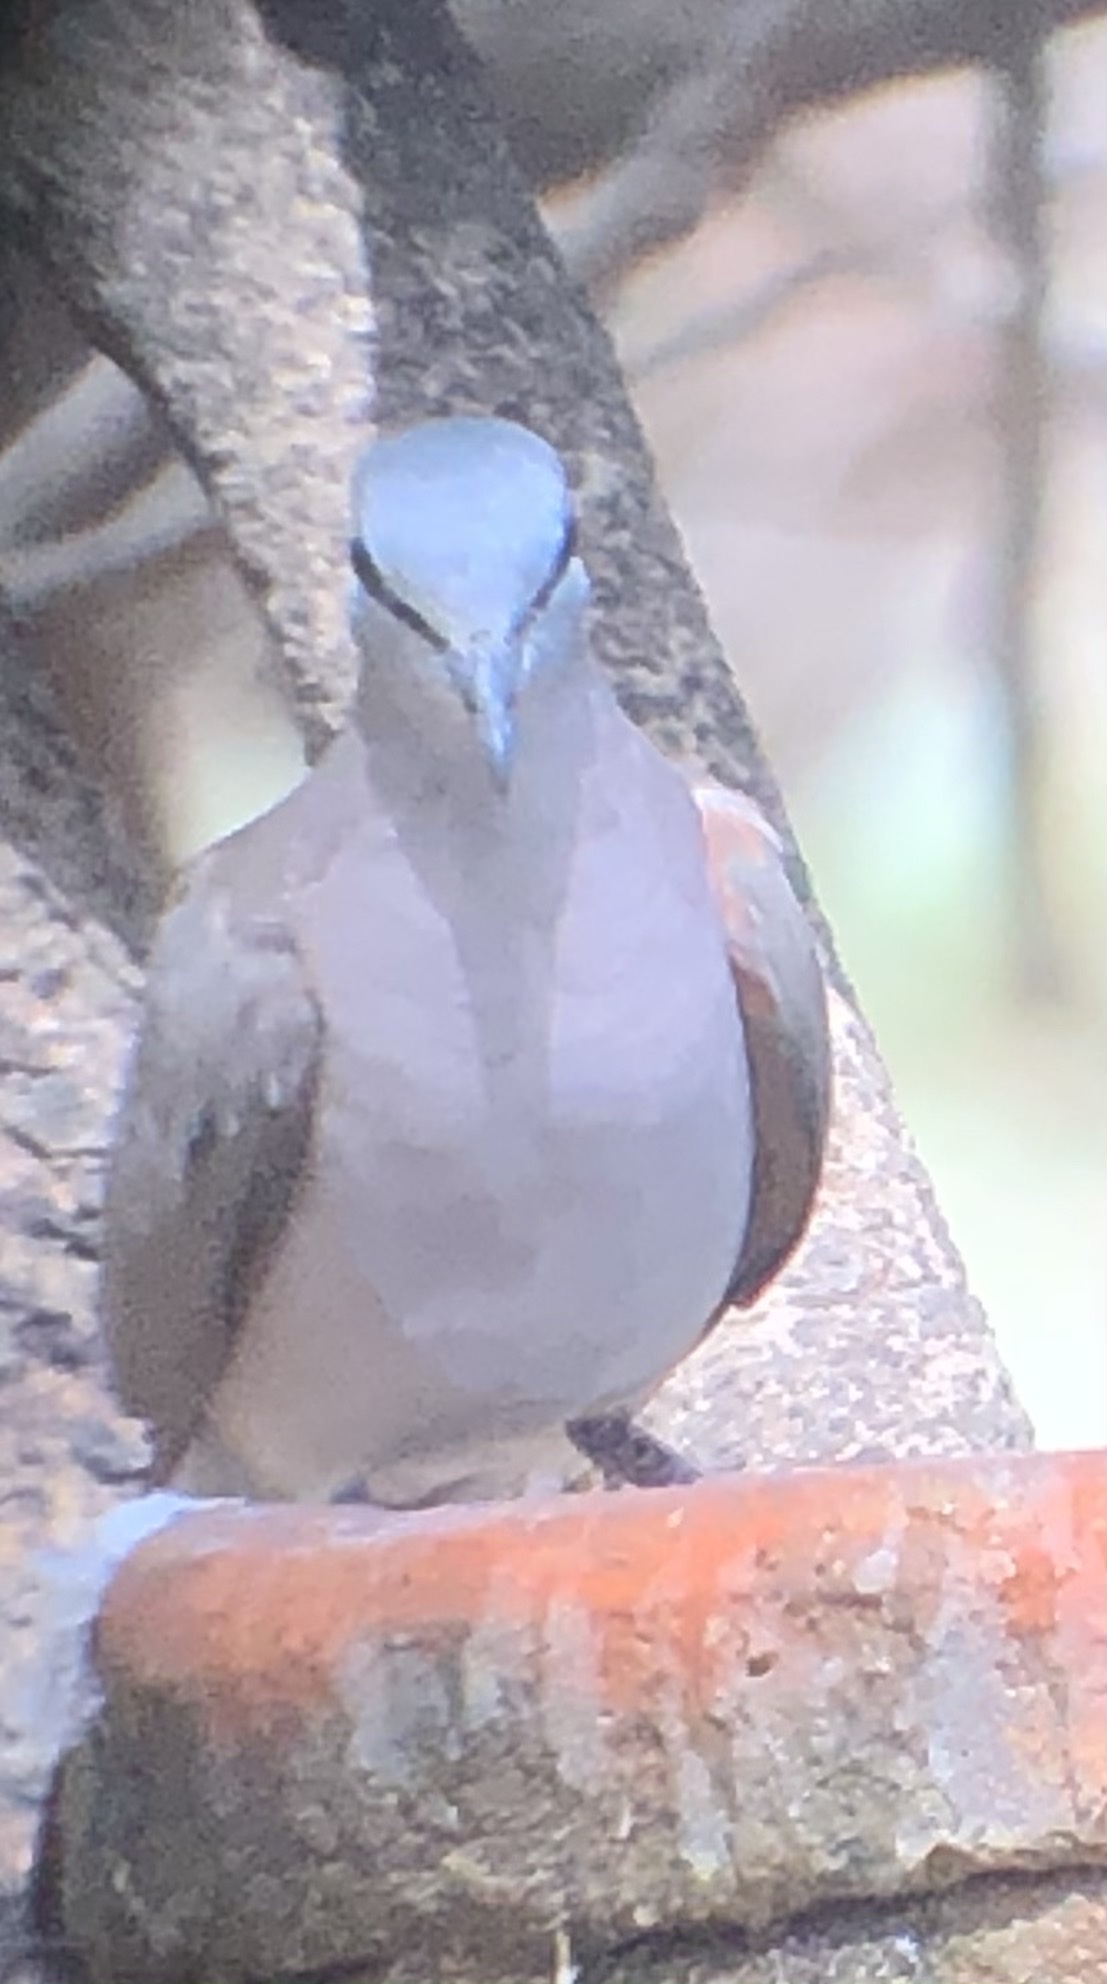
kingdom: Animalia
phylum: Chordata
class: Aves
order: Columbiformes
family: Columbidae
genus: Turtur
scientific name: Turtur abyssinicus
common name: Black-billed wood dove
